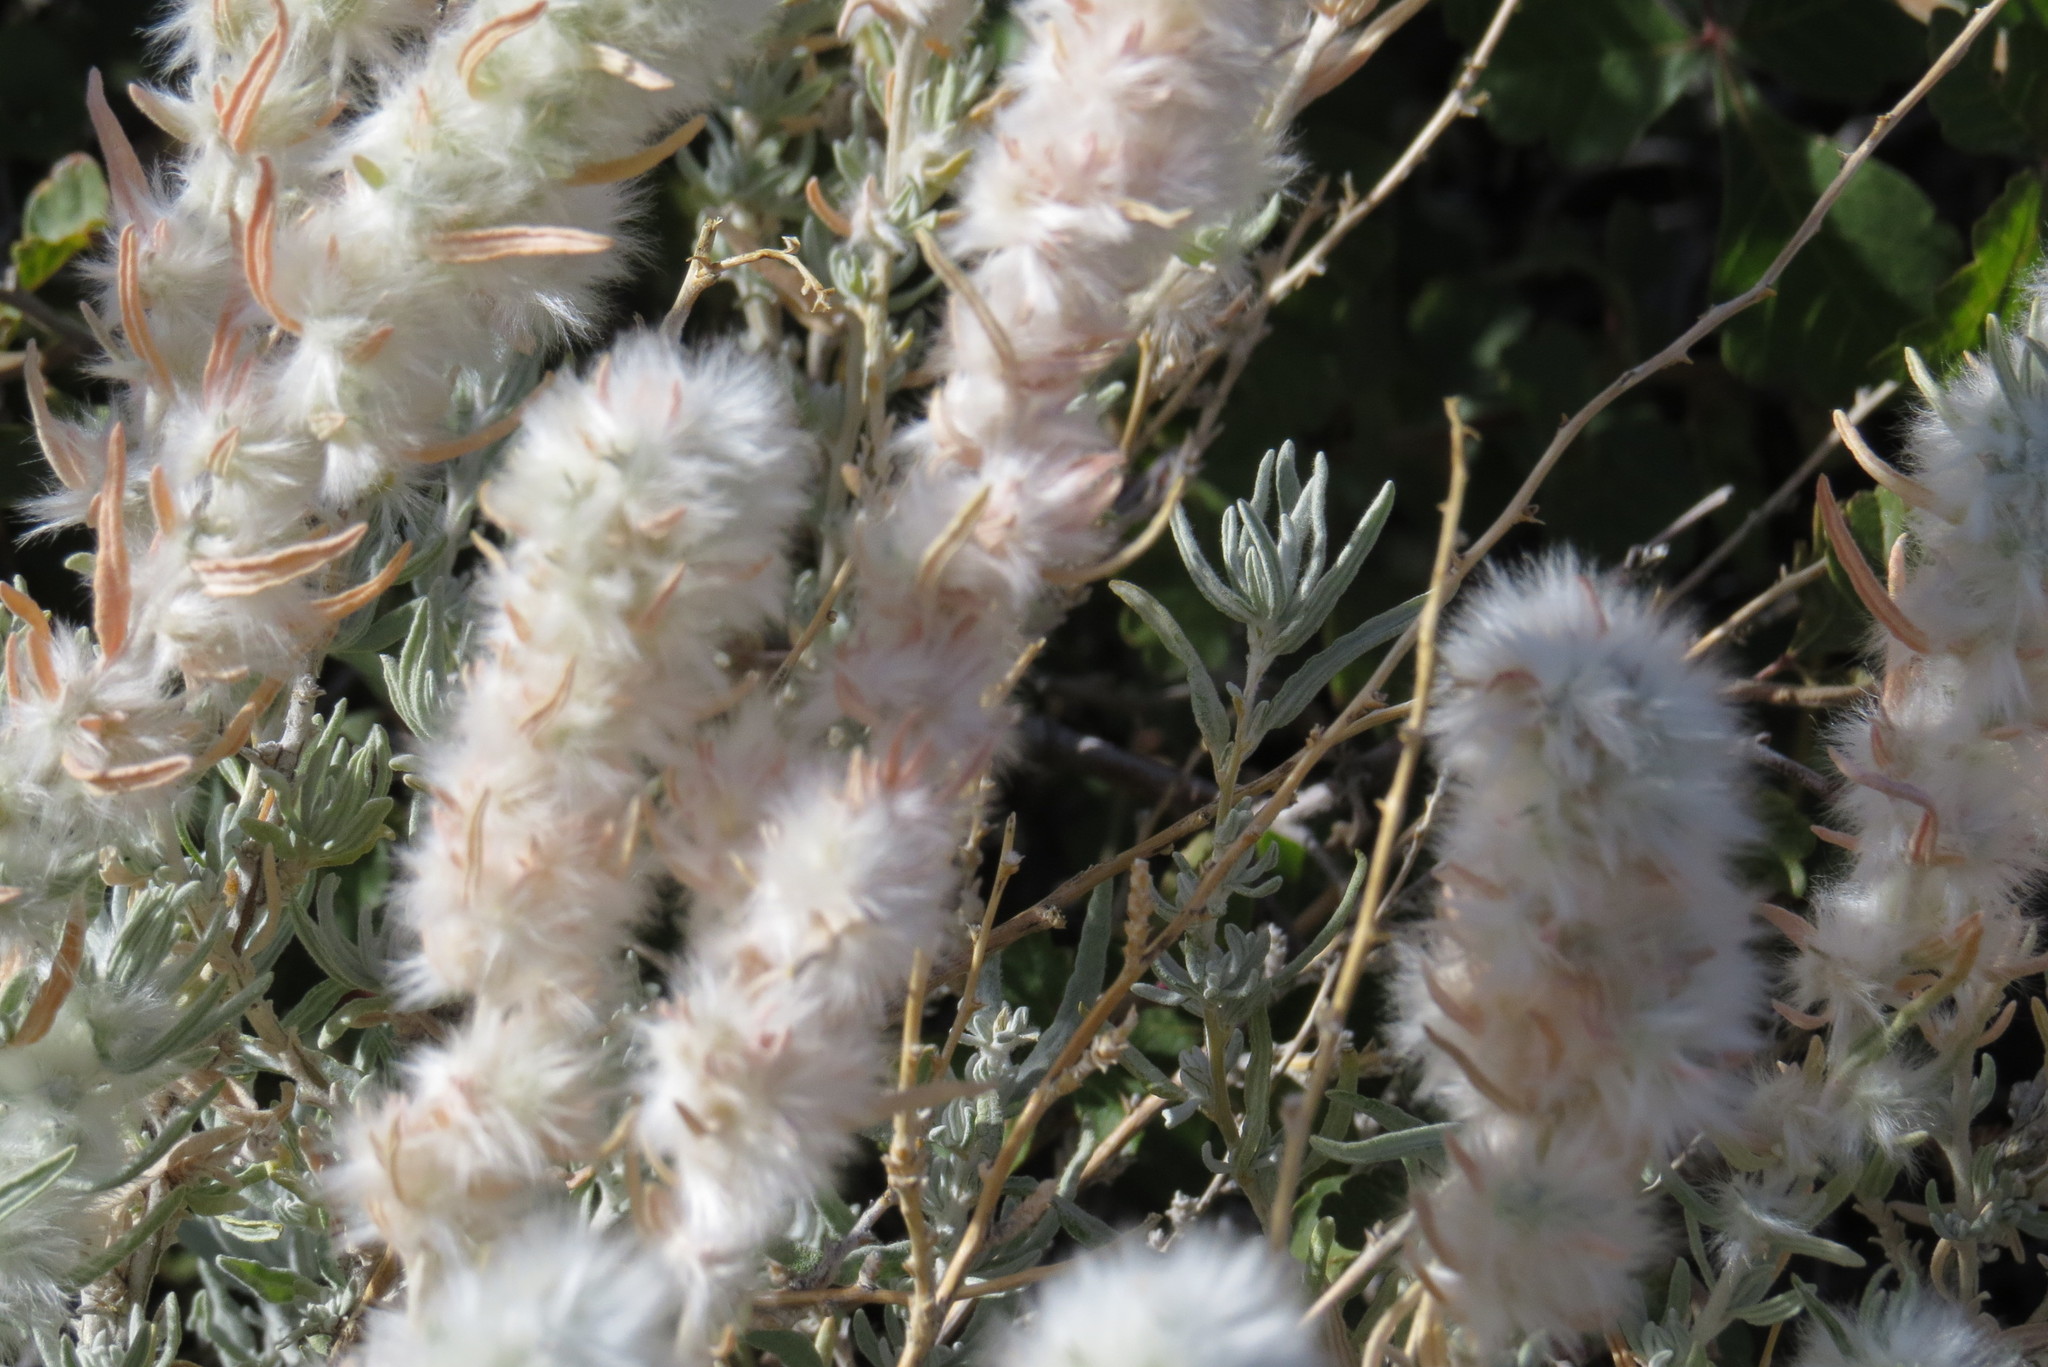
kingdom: Plantae
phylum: Tracheophyta
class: Magnoliopsida
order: Caryophyllales
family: Amaranthaceae
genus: Krascheninnikovia
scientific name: Krascheninnikovia lanata
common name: Winterfat
